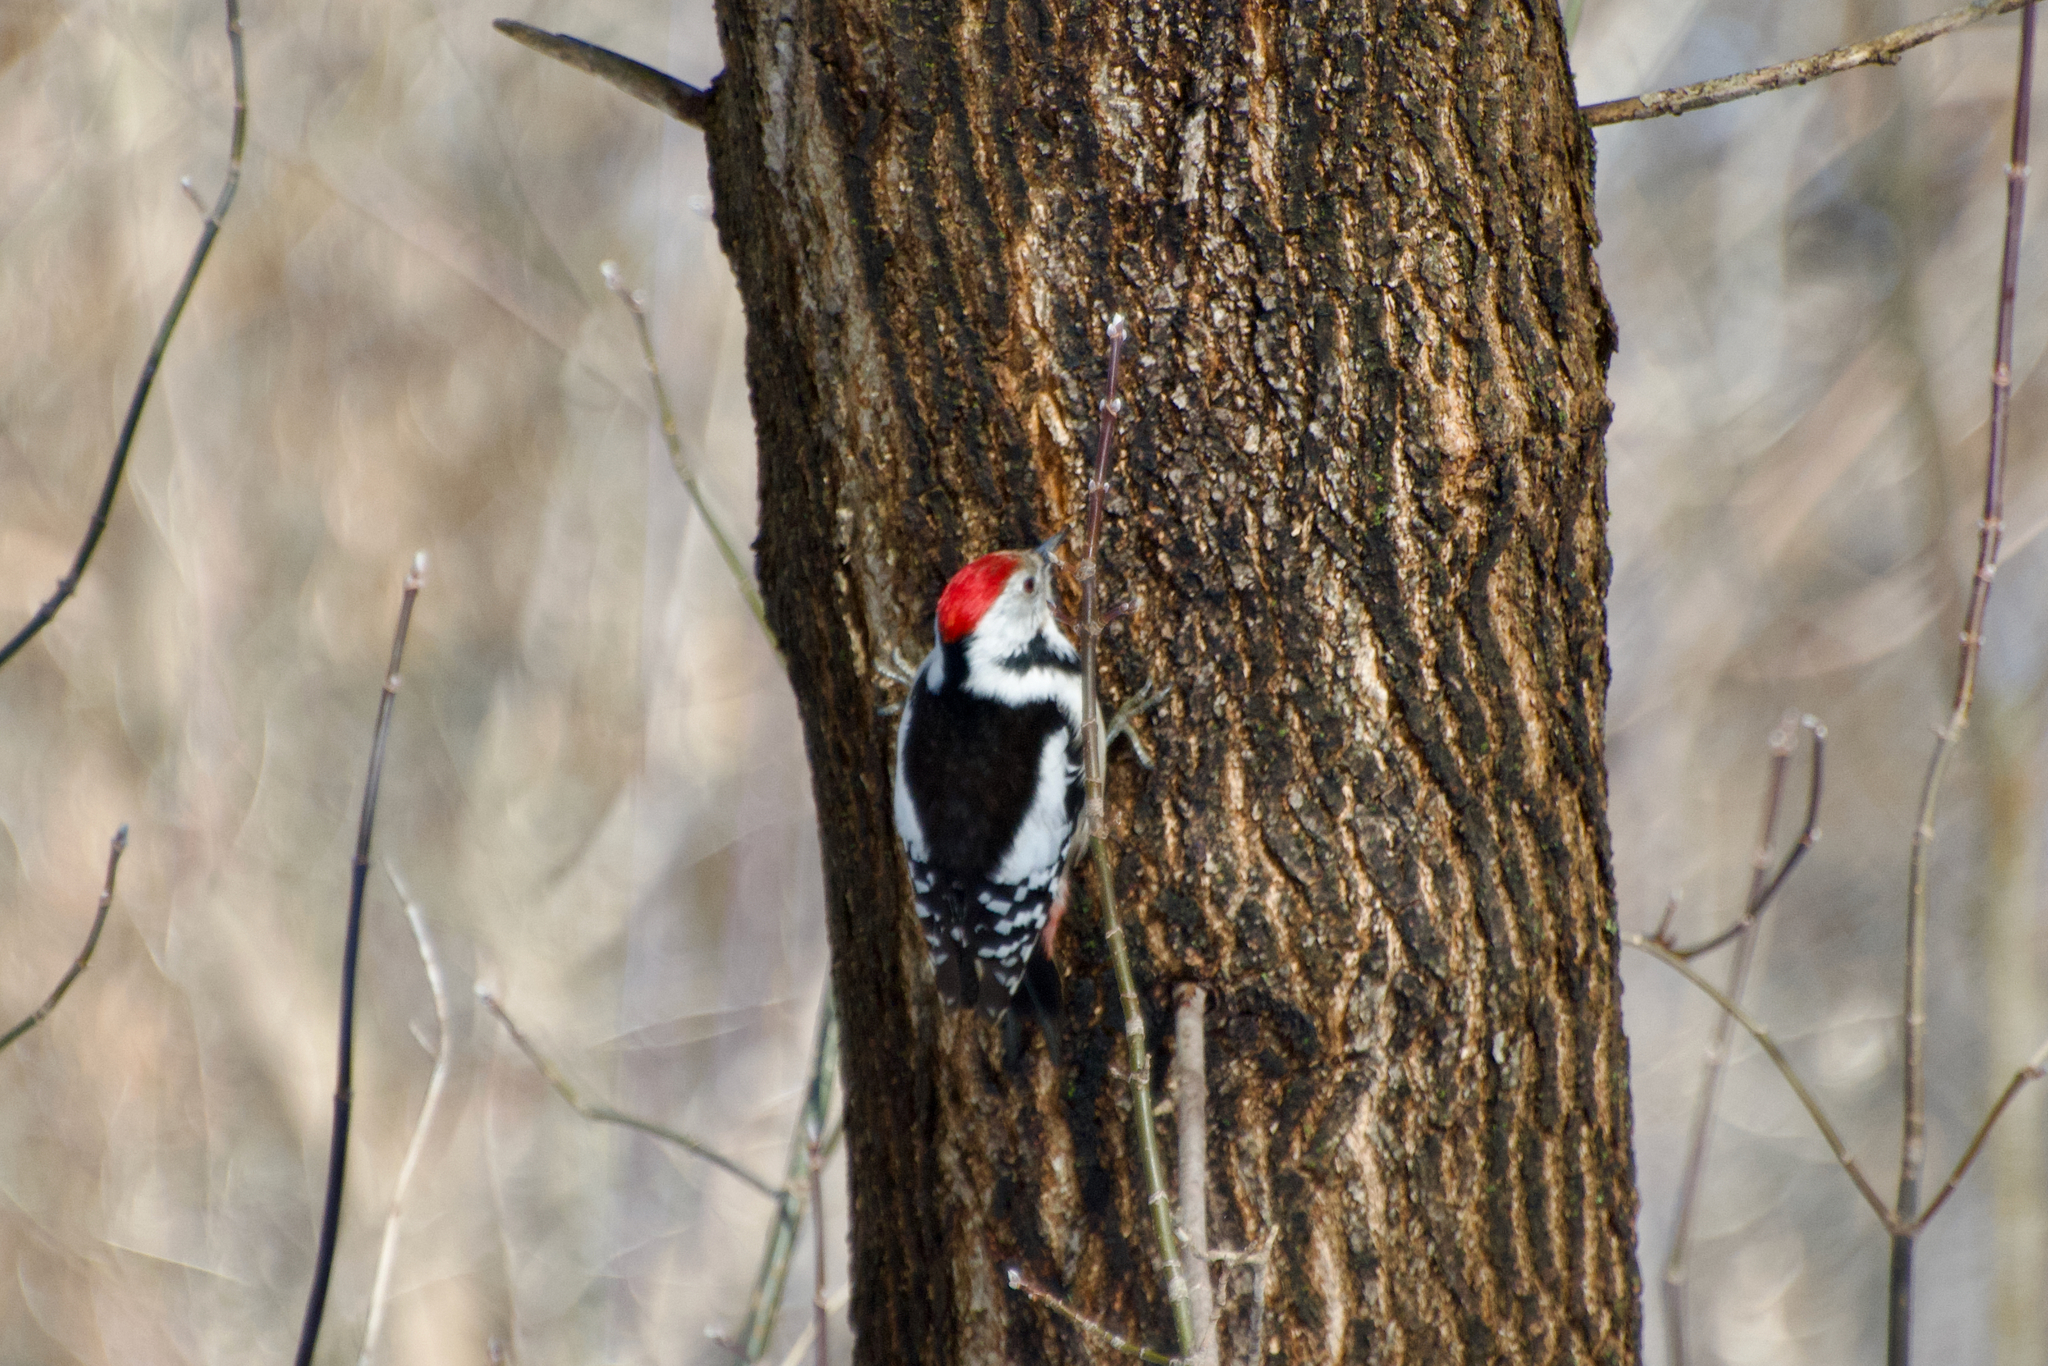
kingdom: Animalia
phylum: Chordata
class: Aves
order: Piciformes
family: Picidae
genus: Dendrocoptes
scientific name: Dendrocoptes medius
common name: Middle spotted woodpecker
